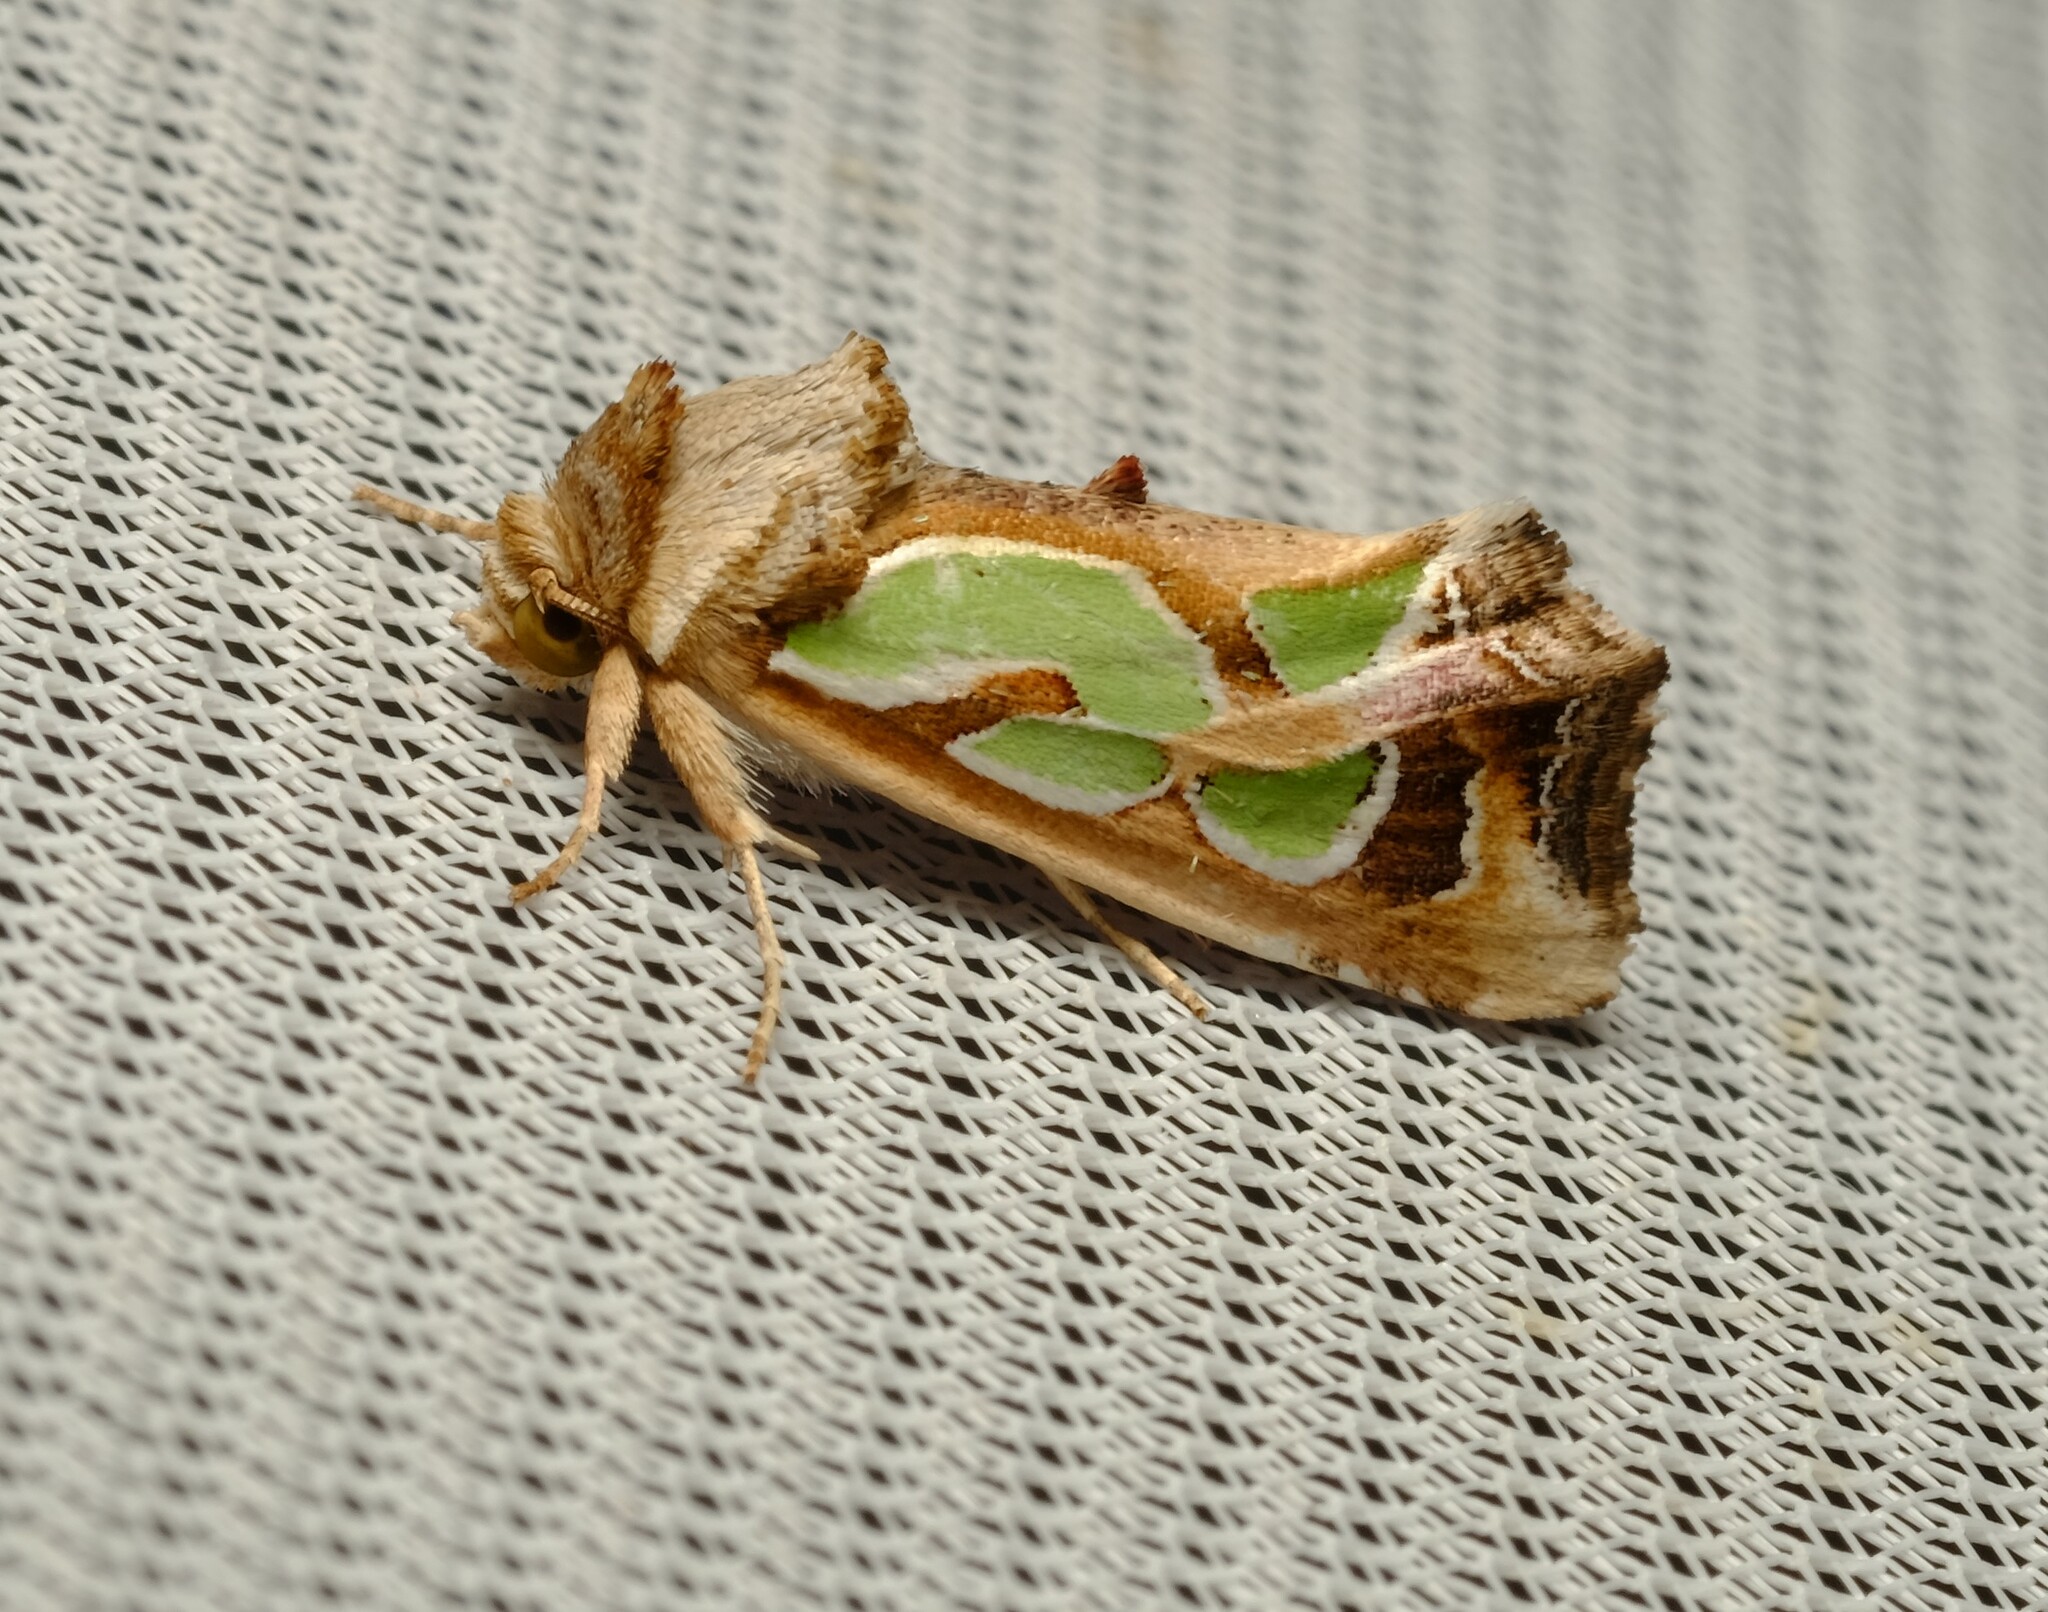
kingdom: Animalia
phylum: Arthropoda
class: Insecta
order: Lepidoptera
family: Noctuidae
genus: Cosmodes
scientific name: Cosmodes elegans
